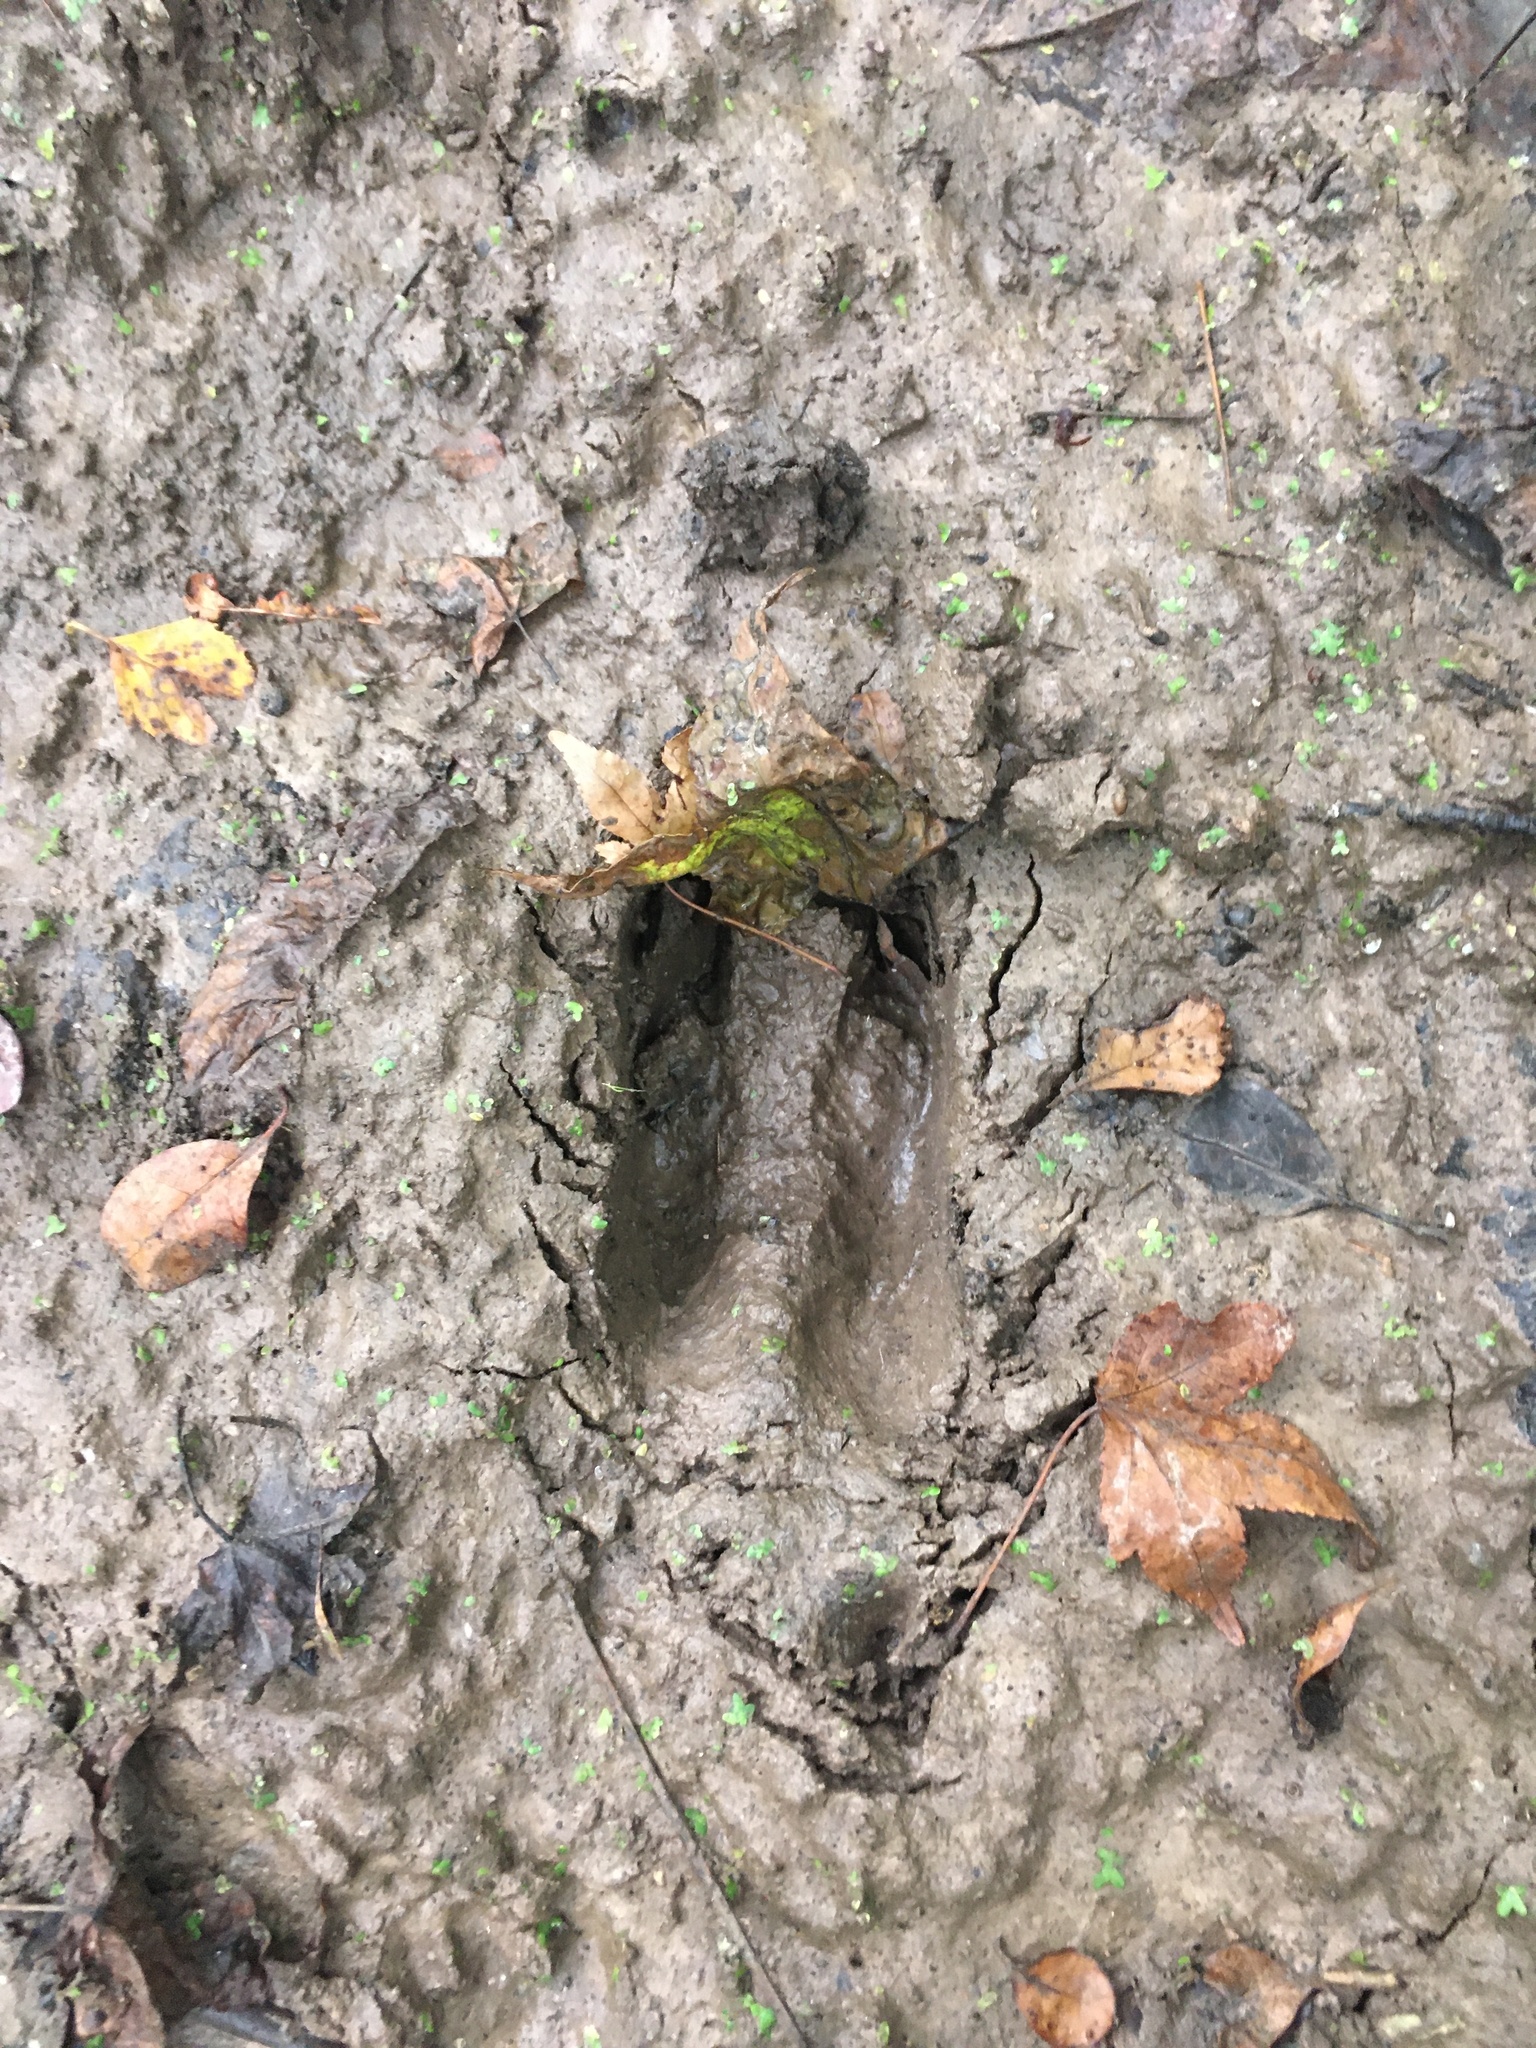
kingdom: Animalia
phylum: Chordata
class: Mammalia
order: Artiodactyla
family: Cervidae
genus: Odocoileus
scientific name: Odocoileus virginianus
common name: White-tailed deer
